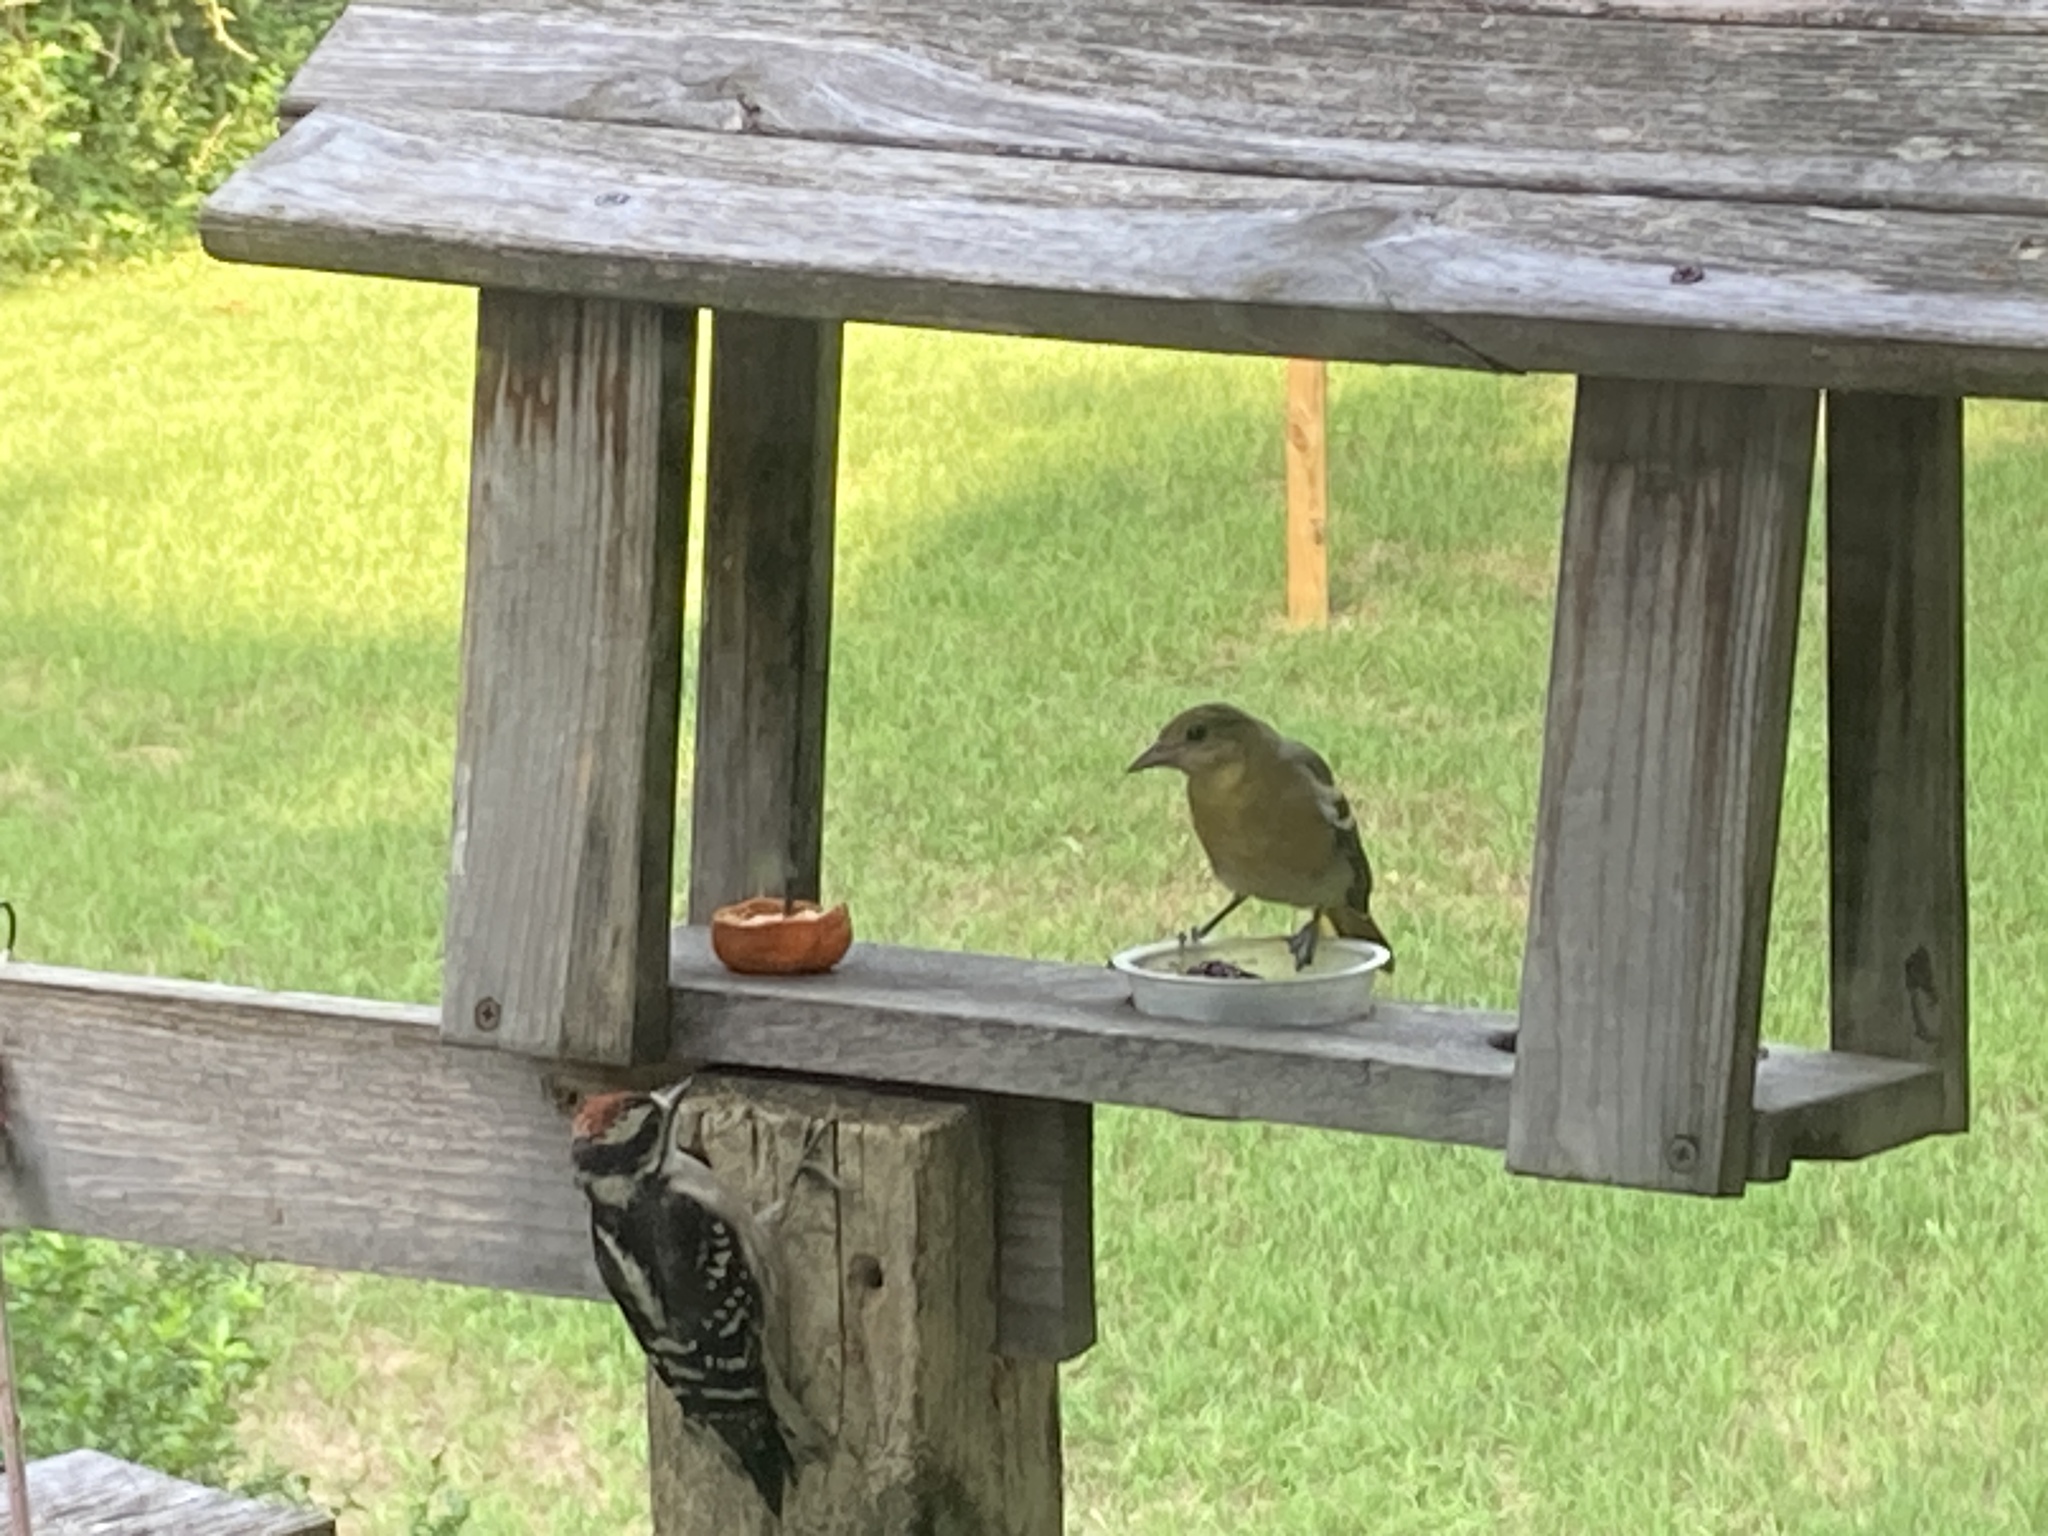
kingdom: Animalia
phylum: Chordata
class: Aves
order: Passeriformes
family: Icteridae
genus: Icterus
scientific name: Icterus galbula
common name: Baltimore oriole
